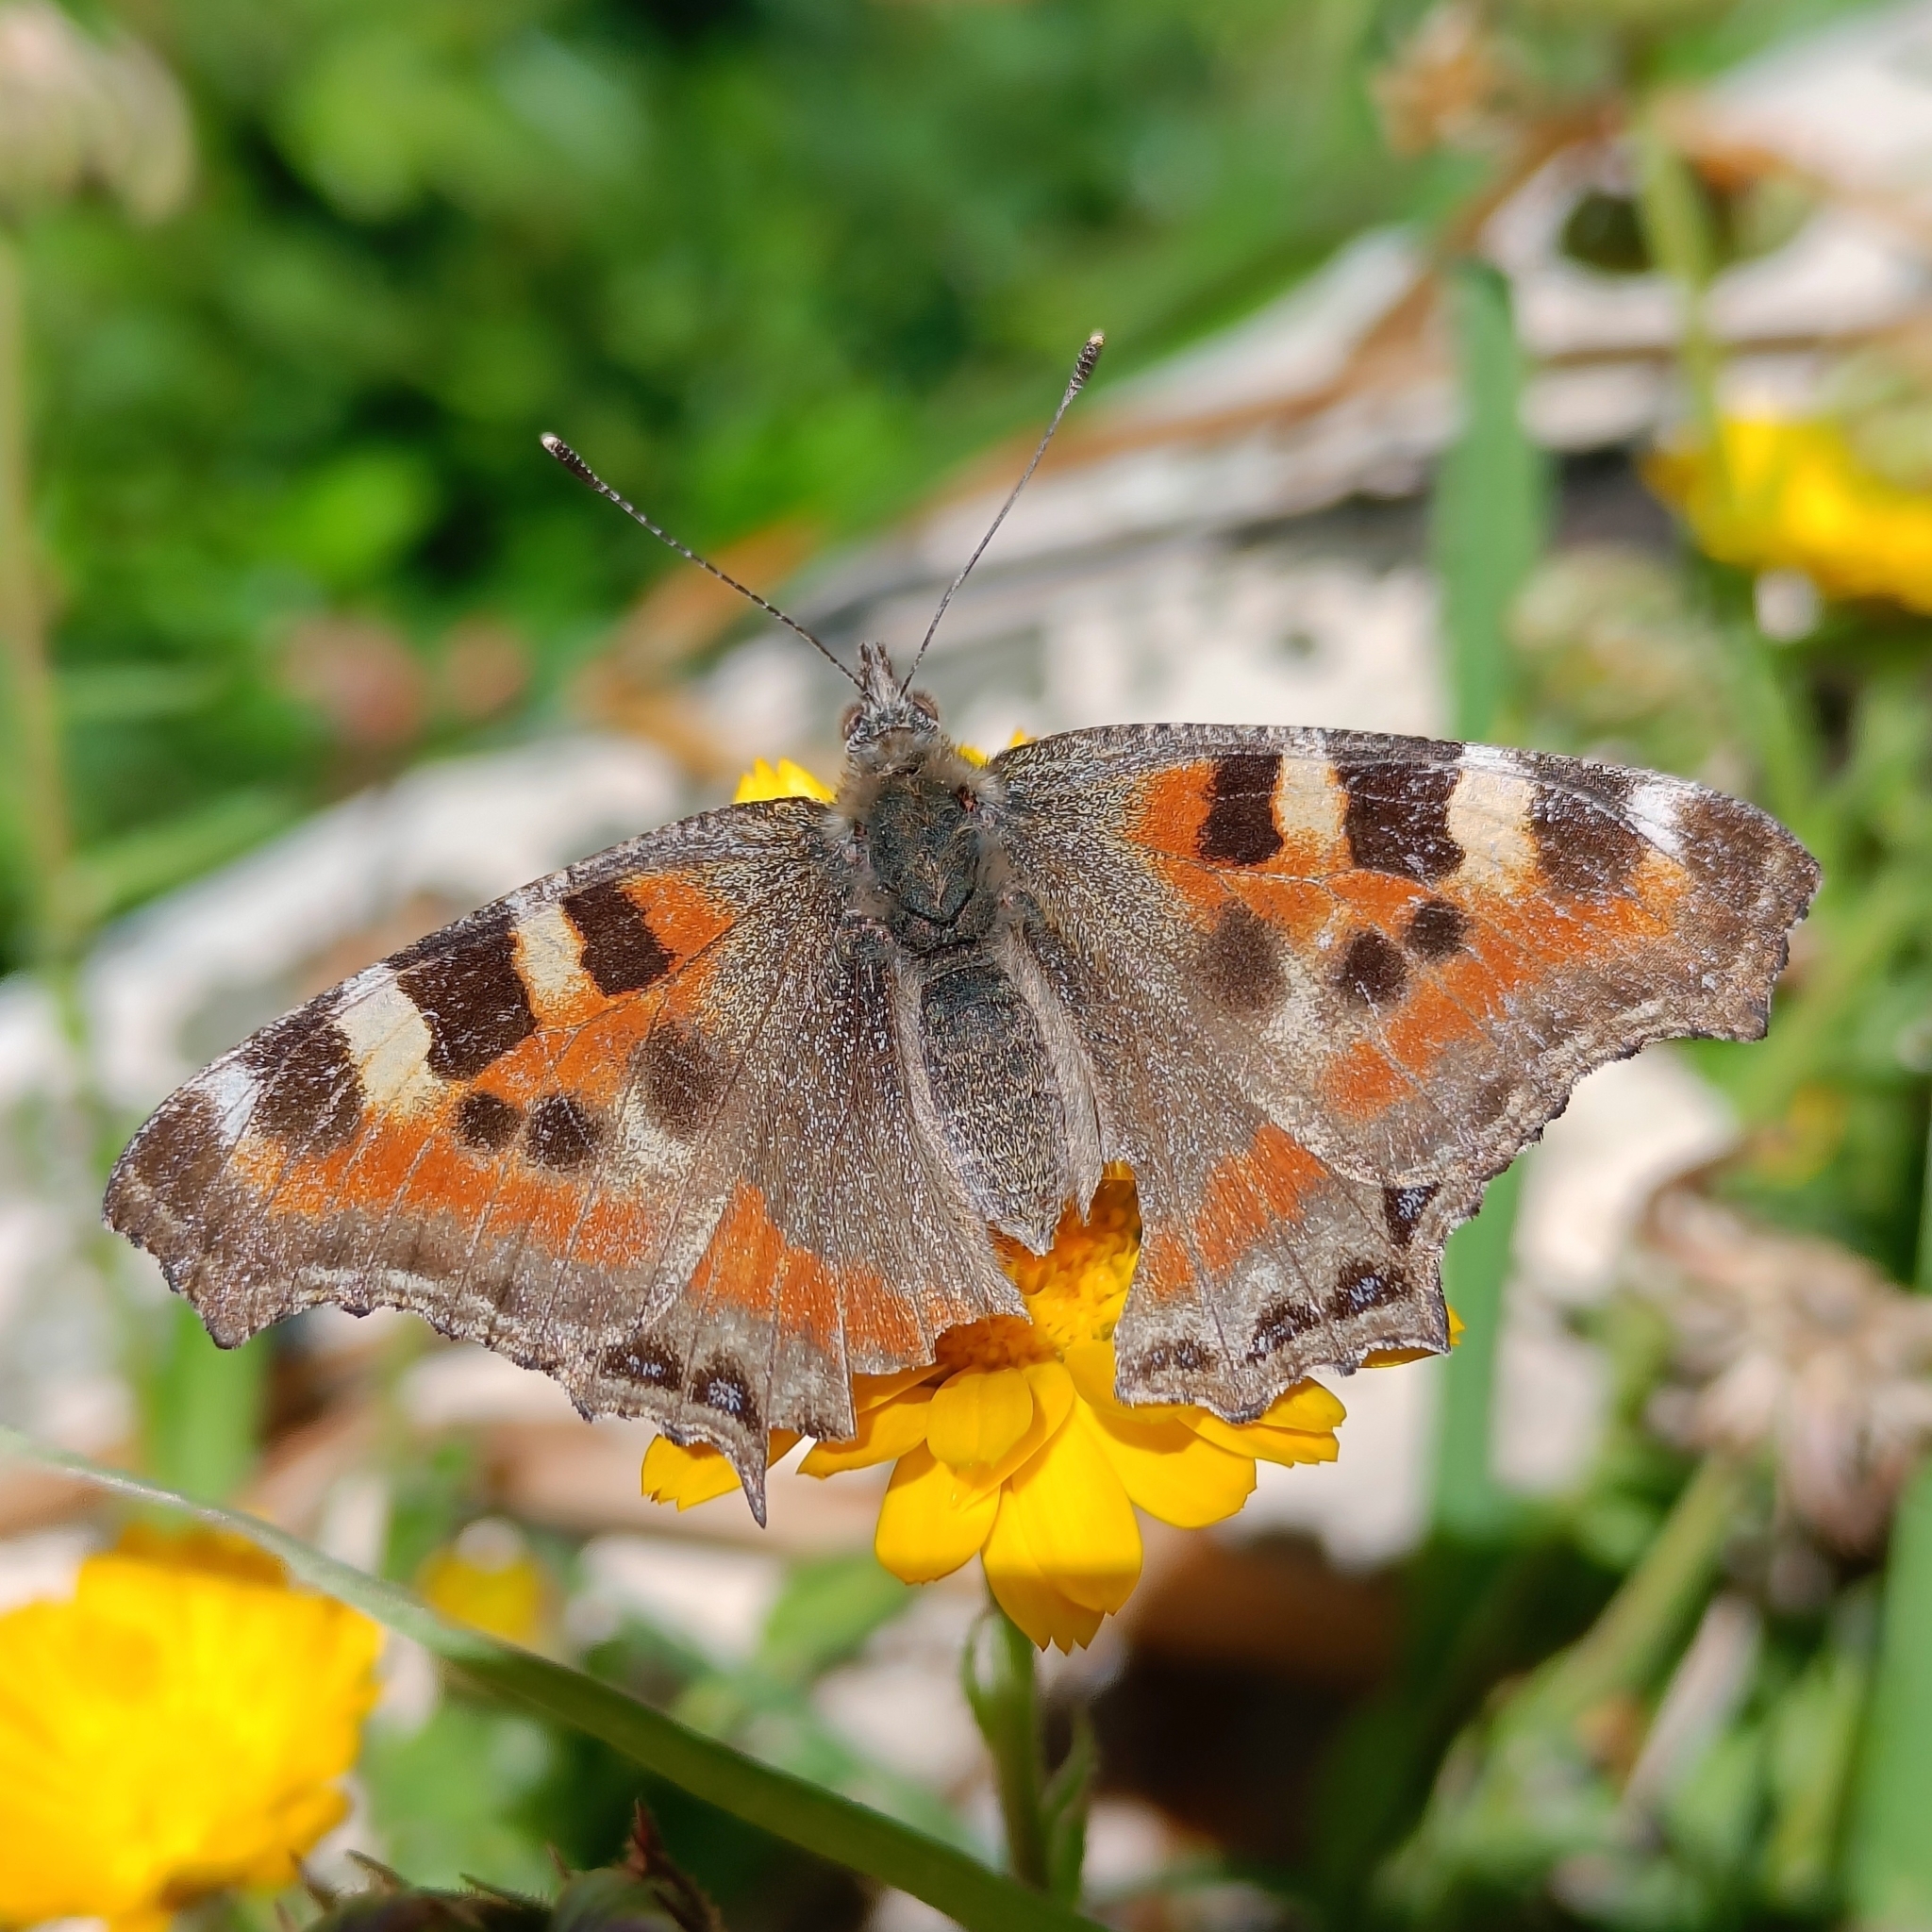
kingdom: Animalia
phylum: Arthropoda
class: Insecta
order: Lepidoptera
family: Nymphalidae
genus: Aglais
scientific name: Aglais caschmirensis
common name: Indian tortoiseshell
